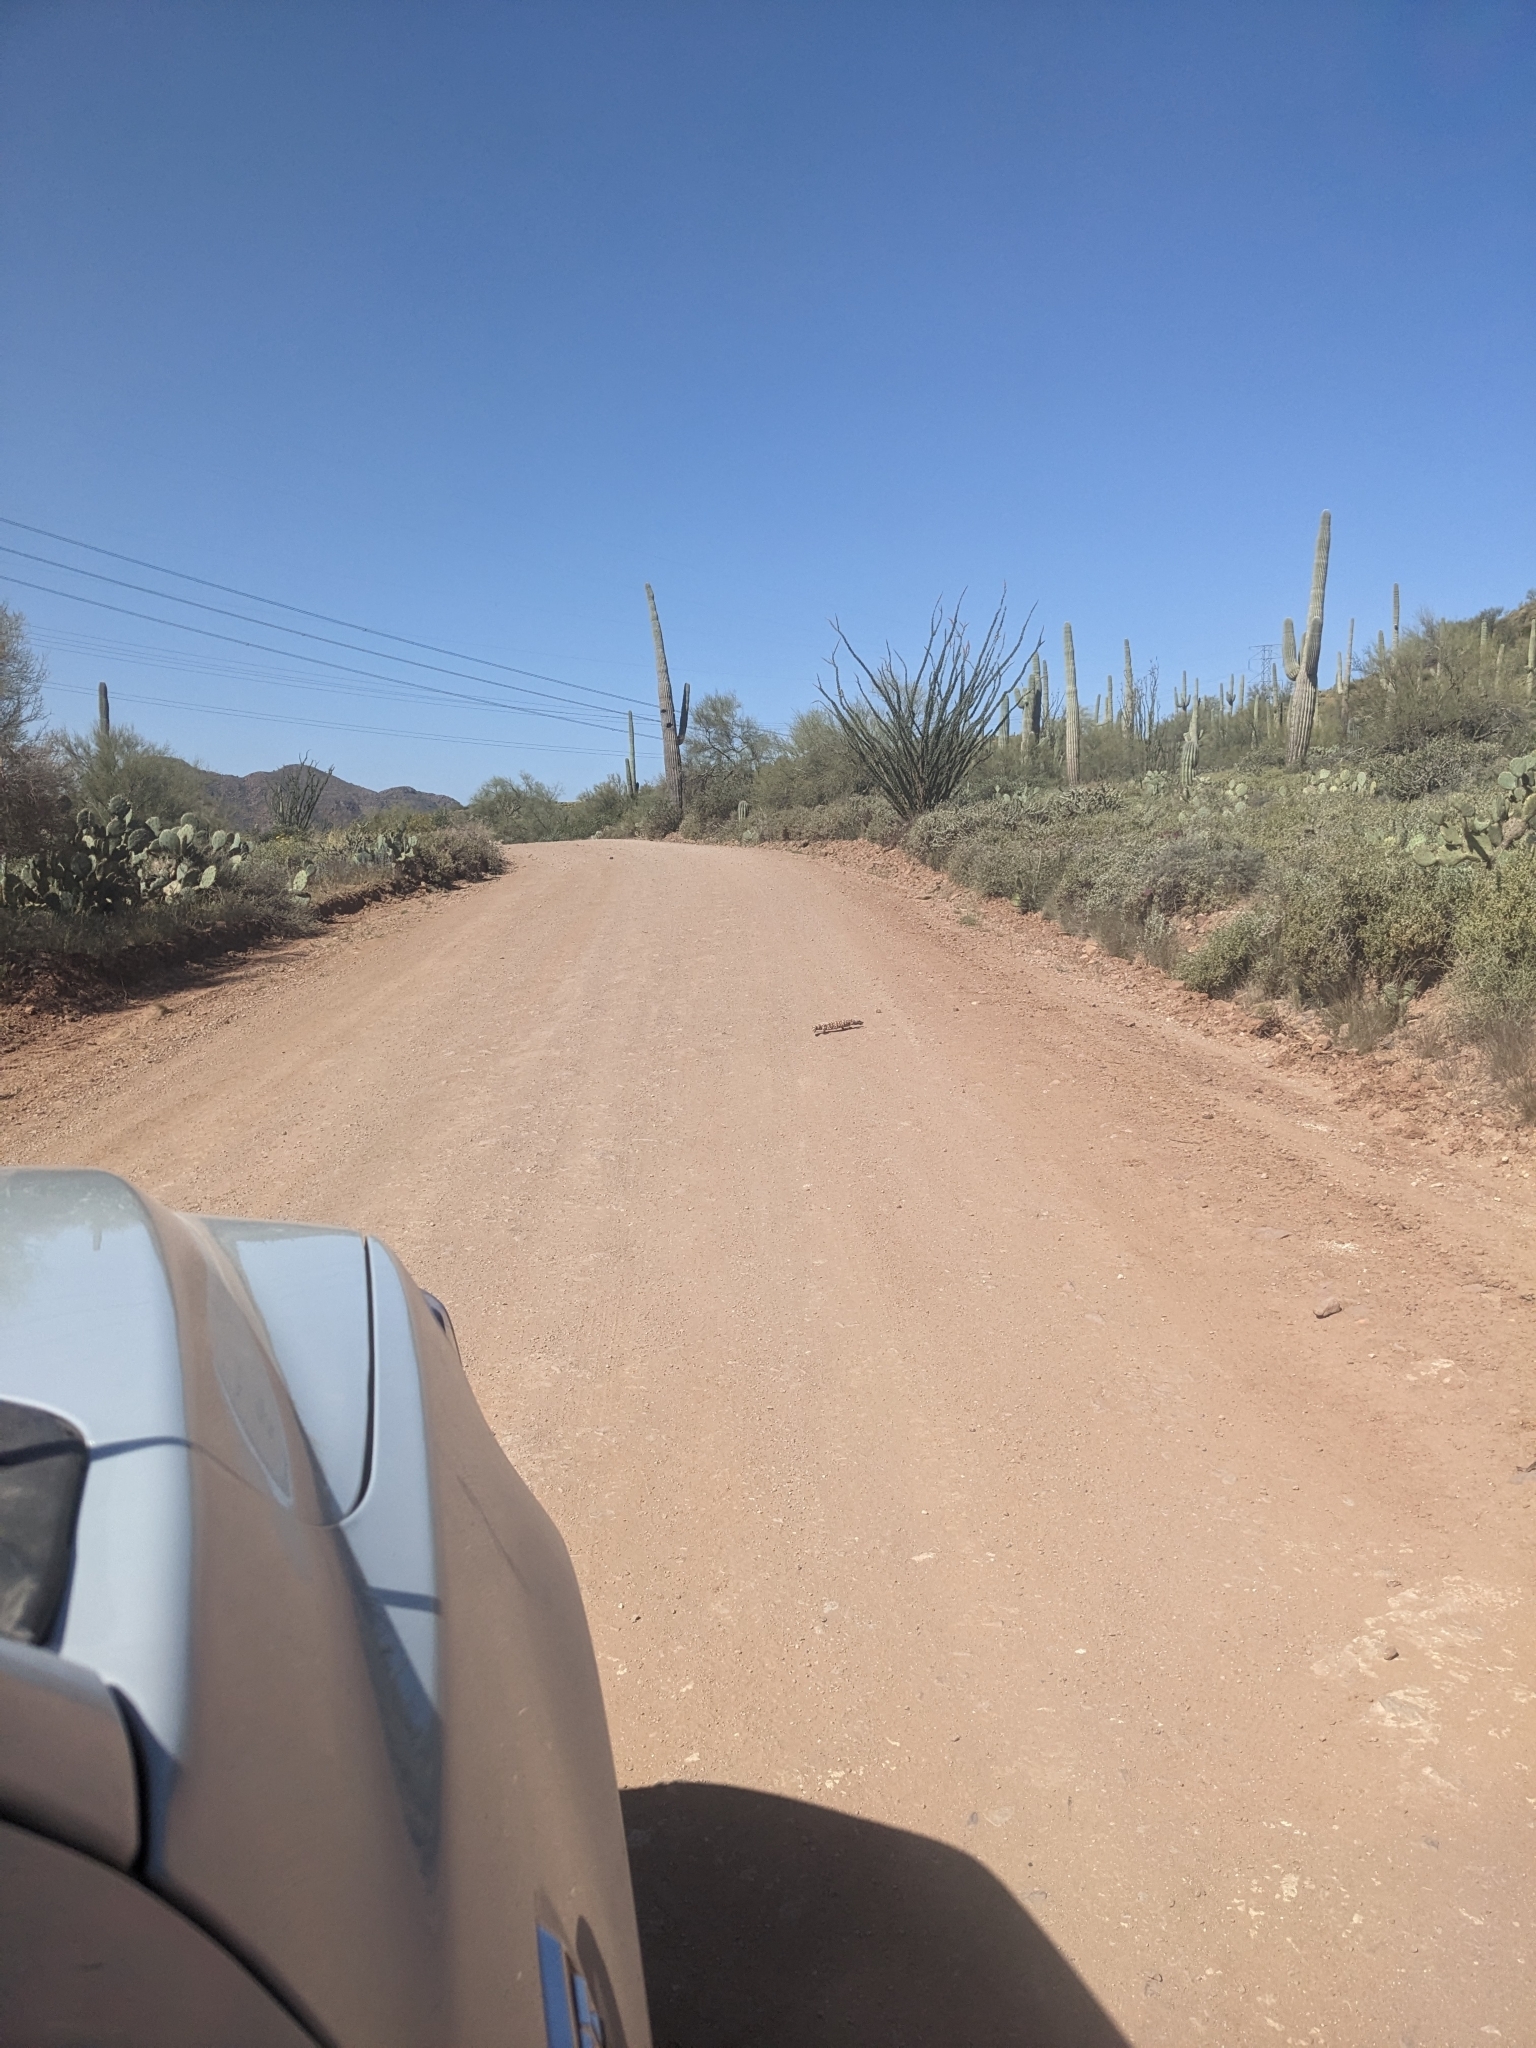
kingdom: Animalia
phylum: Chordata
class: Squamata
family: Helodermatidae
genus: Heloderma
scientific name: Heloderma suspectum
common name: Gila monster
